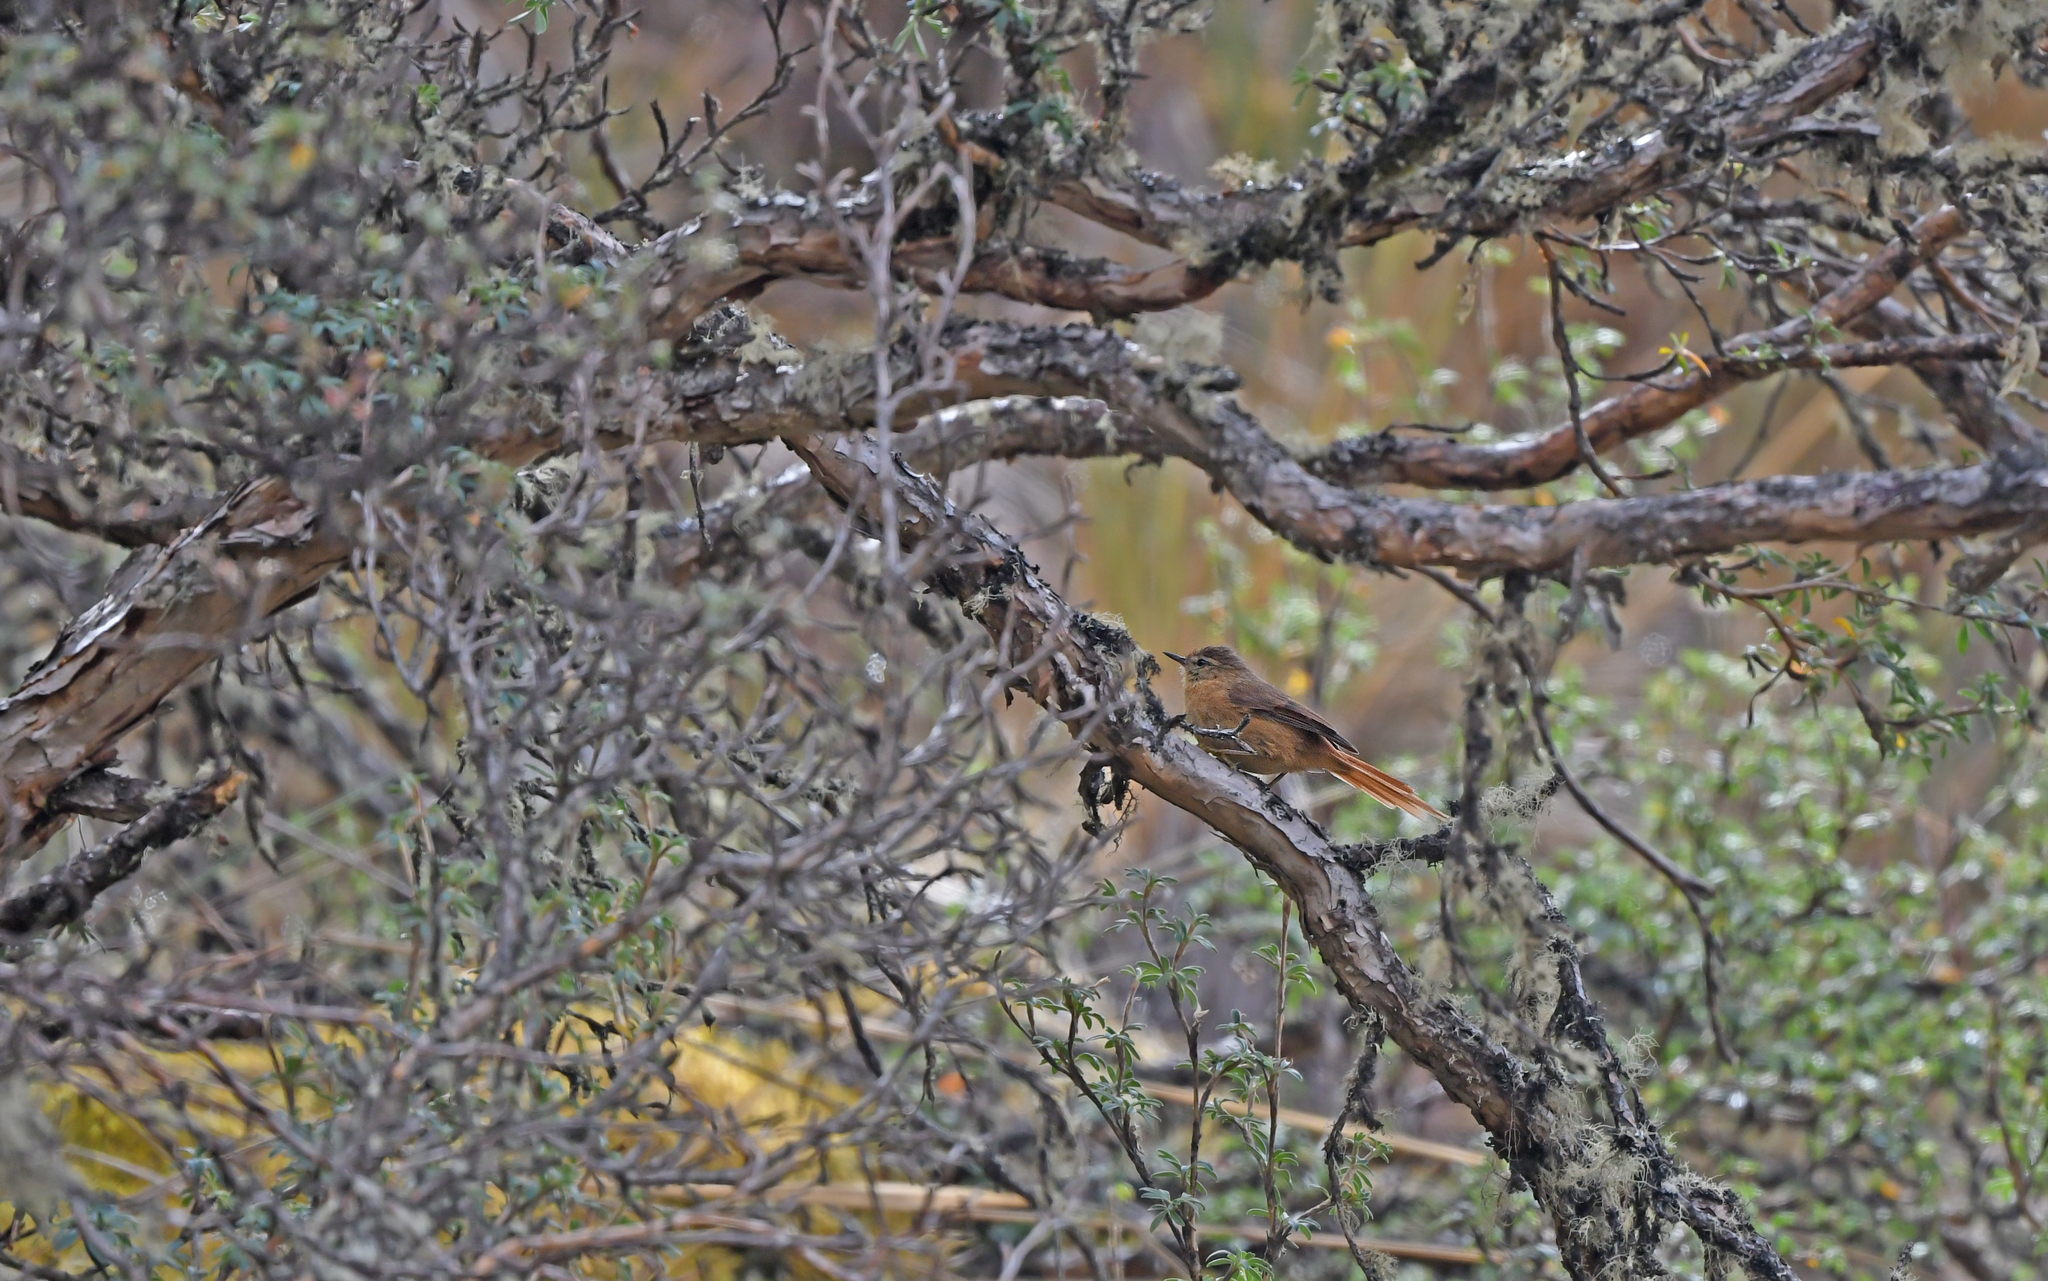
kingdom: Animalia
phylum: Chordata
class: Aves
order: Passeriformes
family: Furnariidae
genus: Leptasthenura
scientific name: Leptasthenura yanacensis
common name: Tawny tit-spinetail
